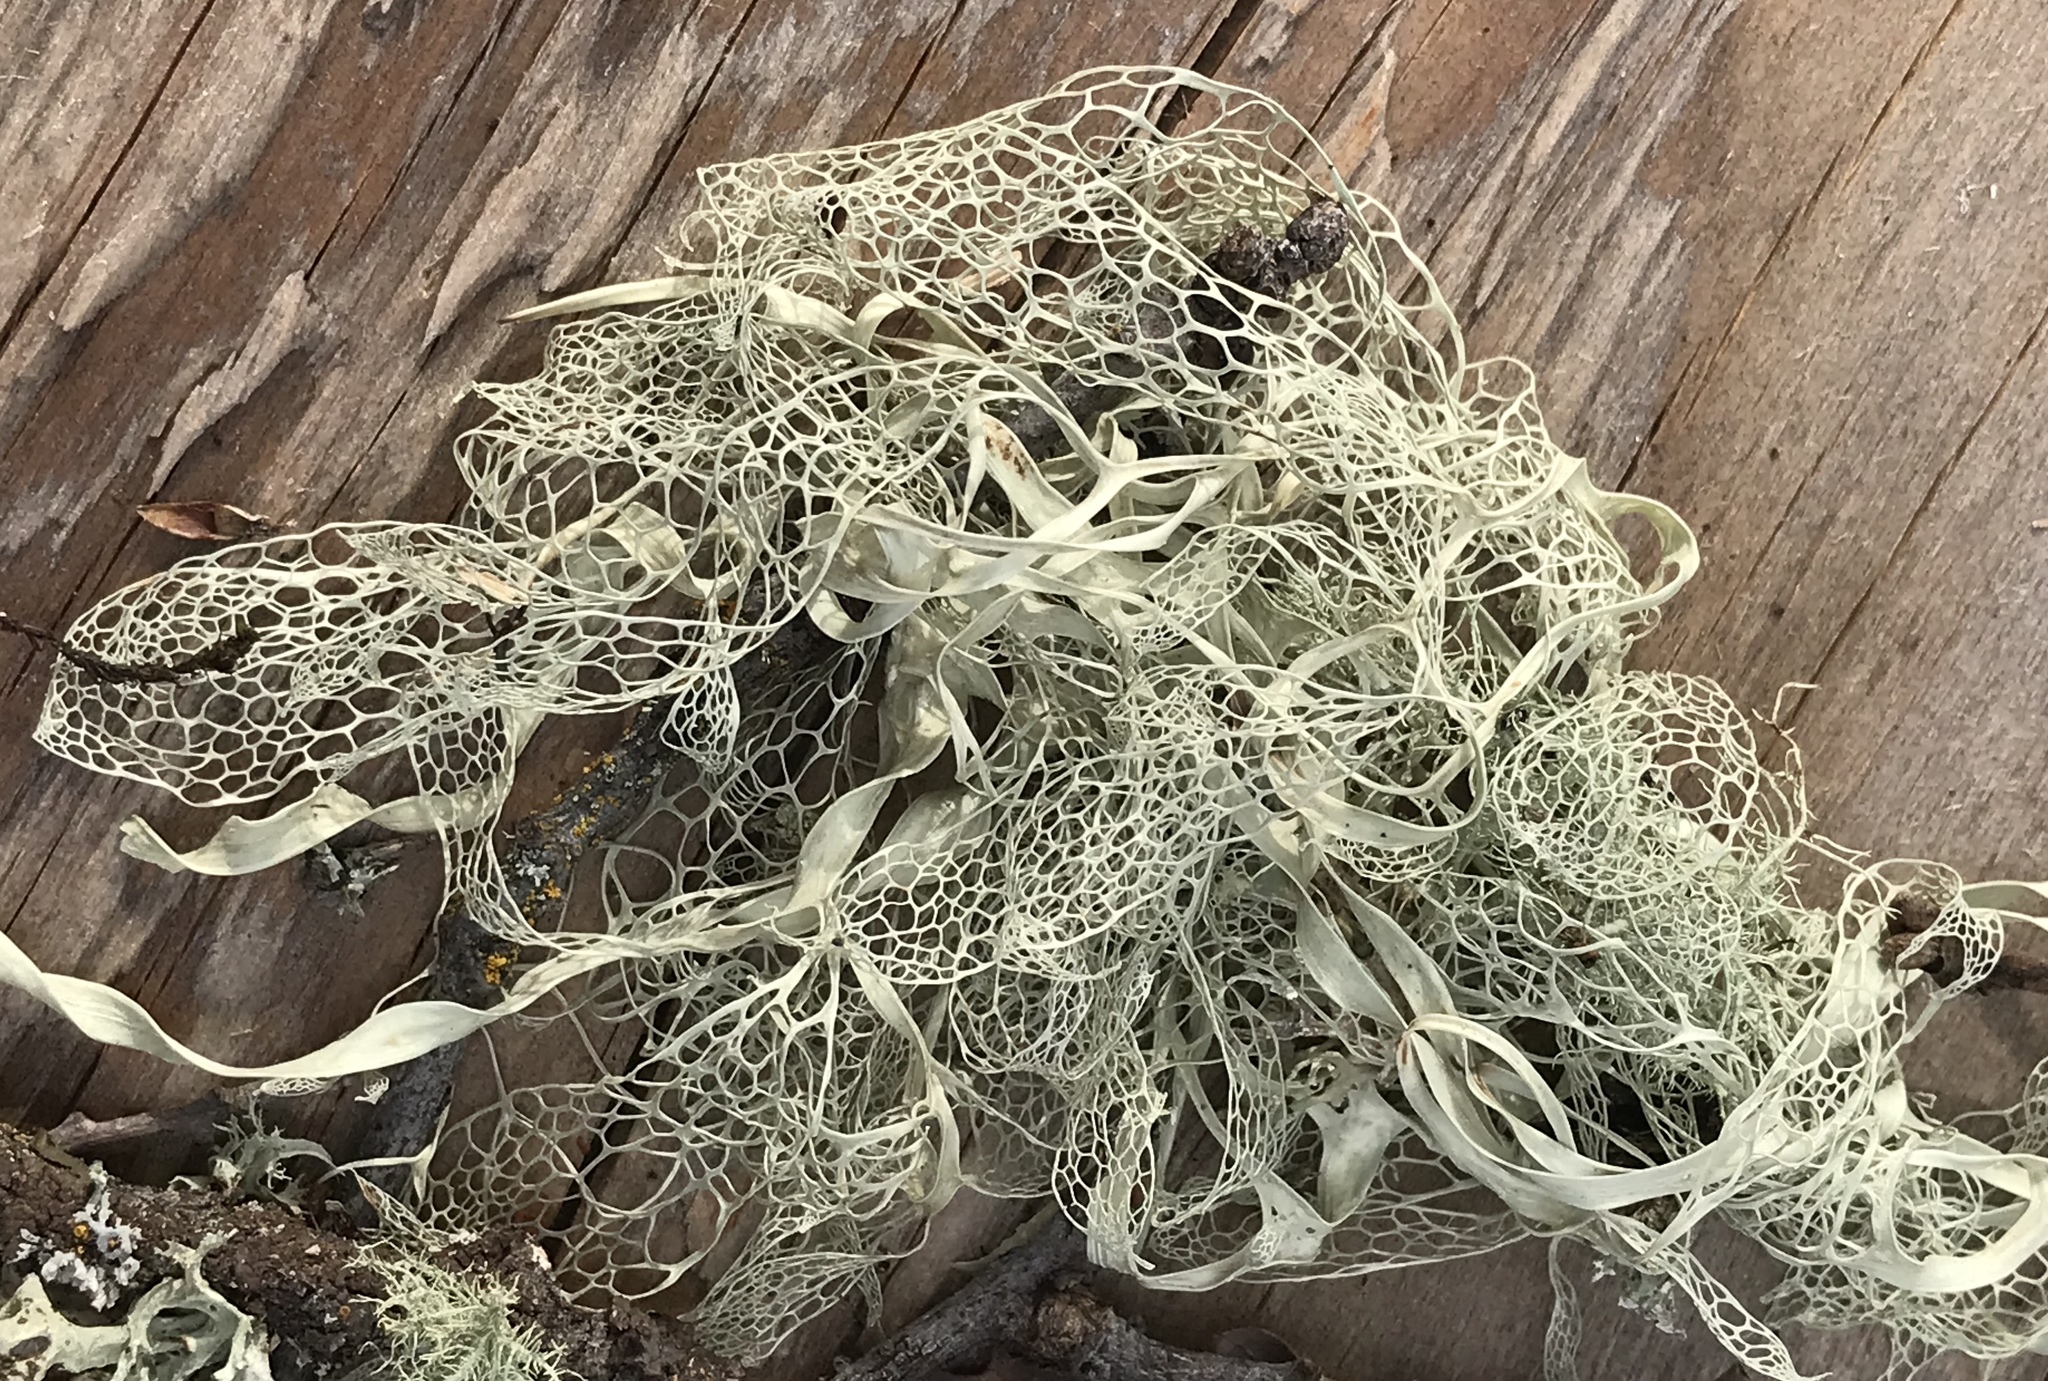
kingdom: Fungi
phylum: Ascomycota
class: Lecanoromycetes
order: Lecanorales
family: Ramalinaceae
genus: Ramalina
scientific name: Ramalina menziesii
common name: Lace lichen
